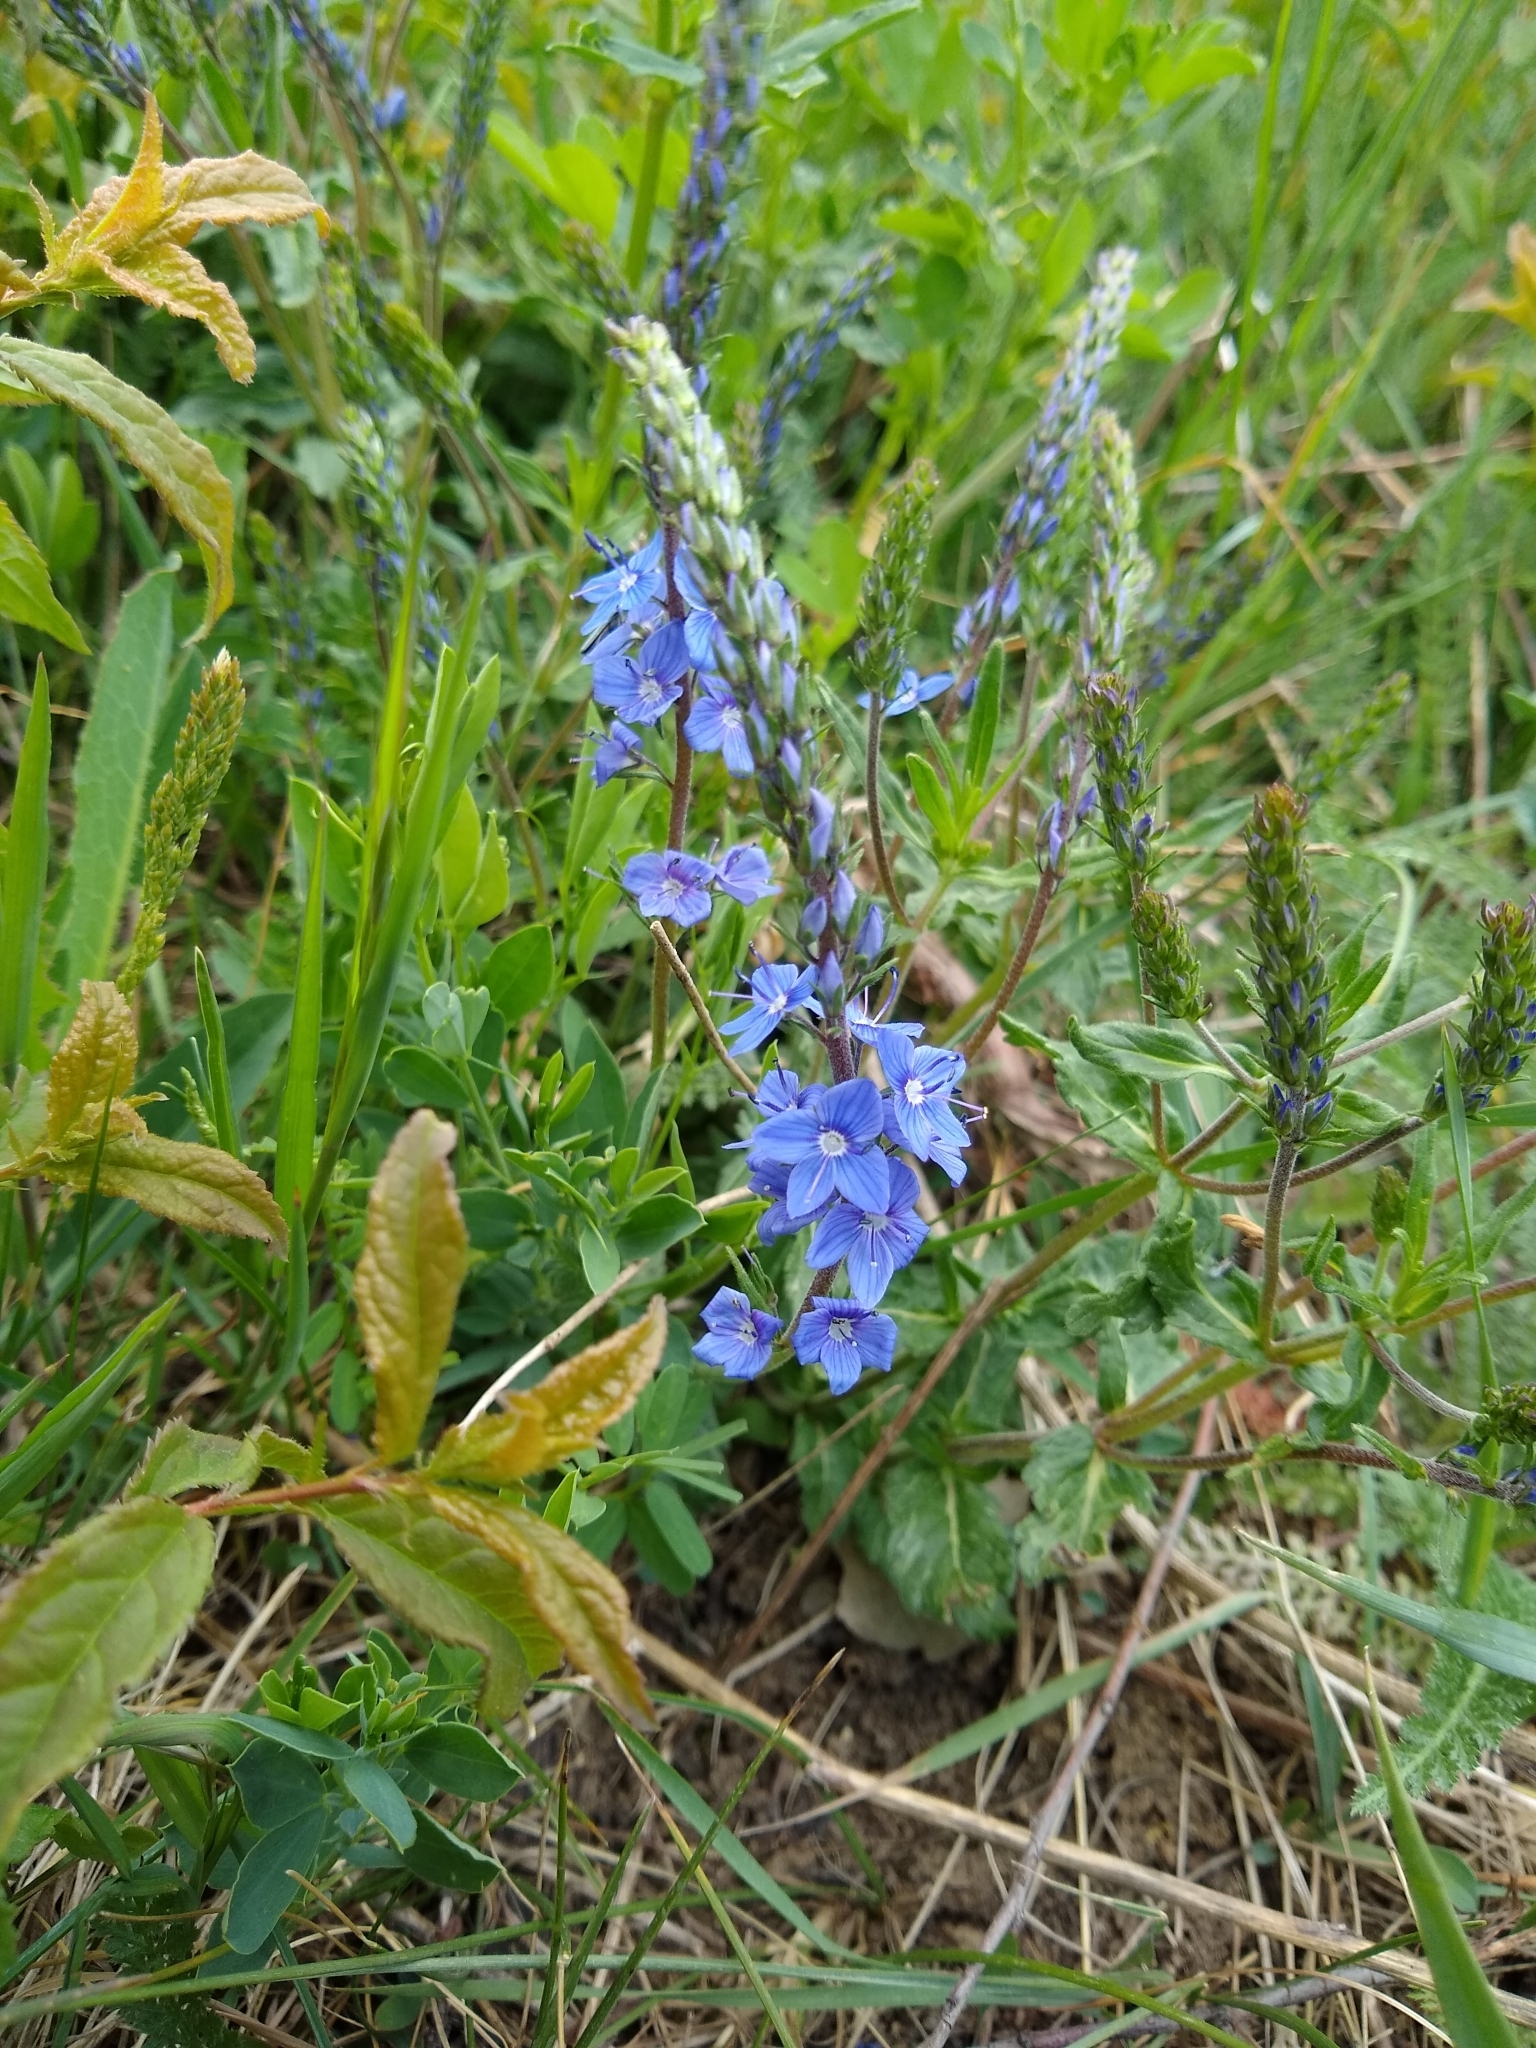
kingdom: Plantae
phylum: Tracheophyta
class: Magnoliopsida
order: Lamiales
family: Plantaginaceae
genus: Veronica
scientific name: Veronica teucrium
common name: Large speedwell
